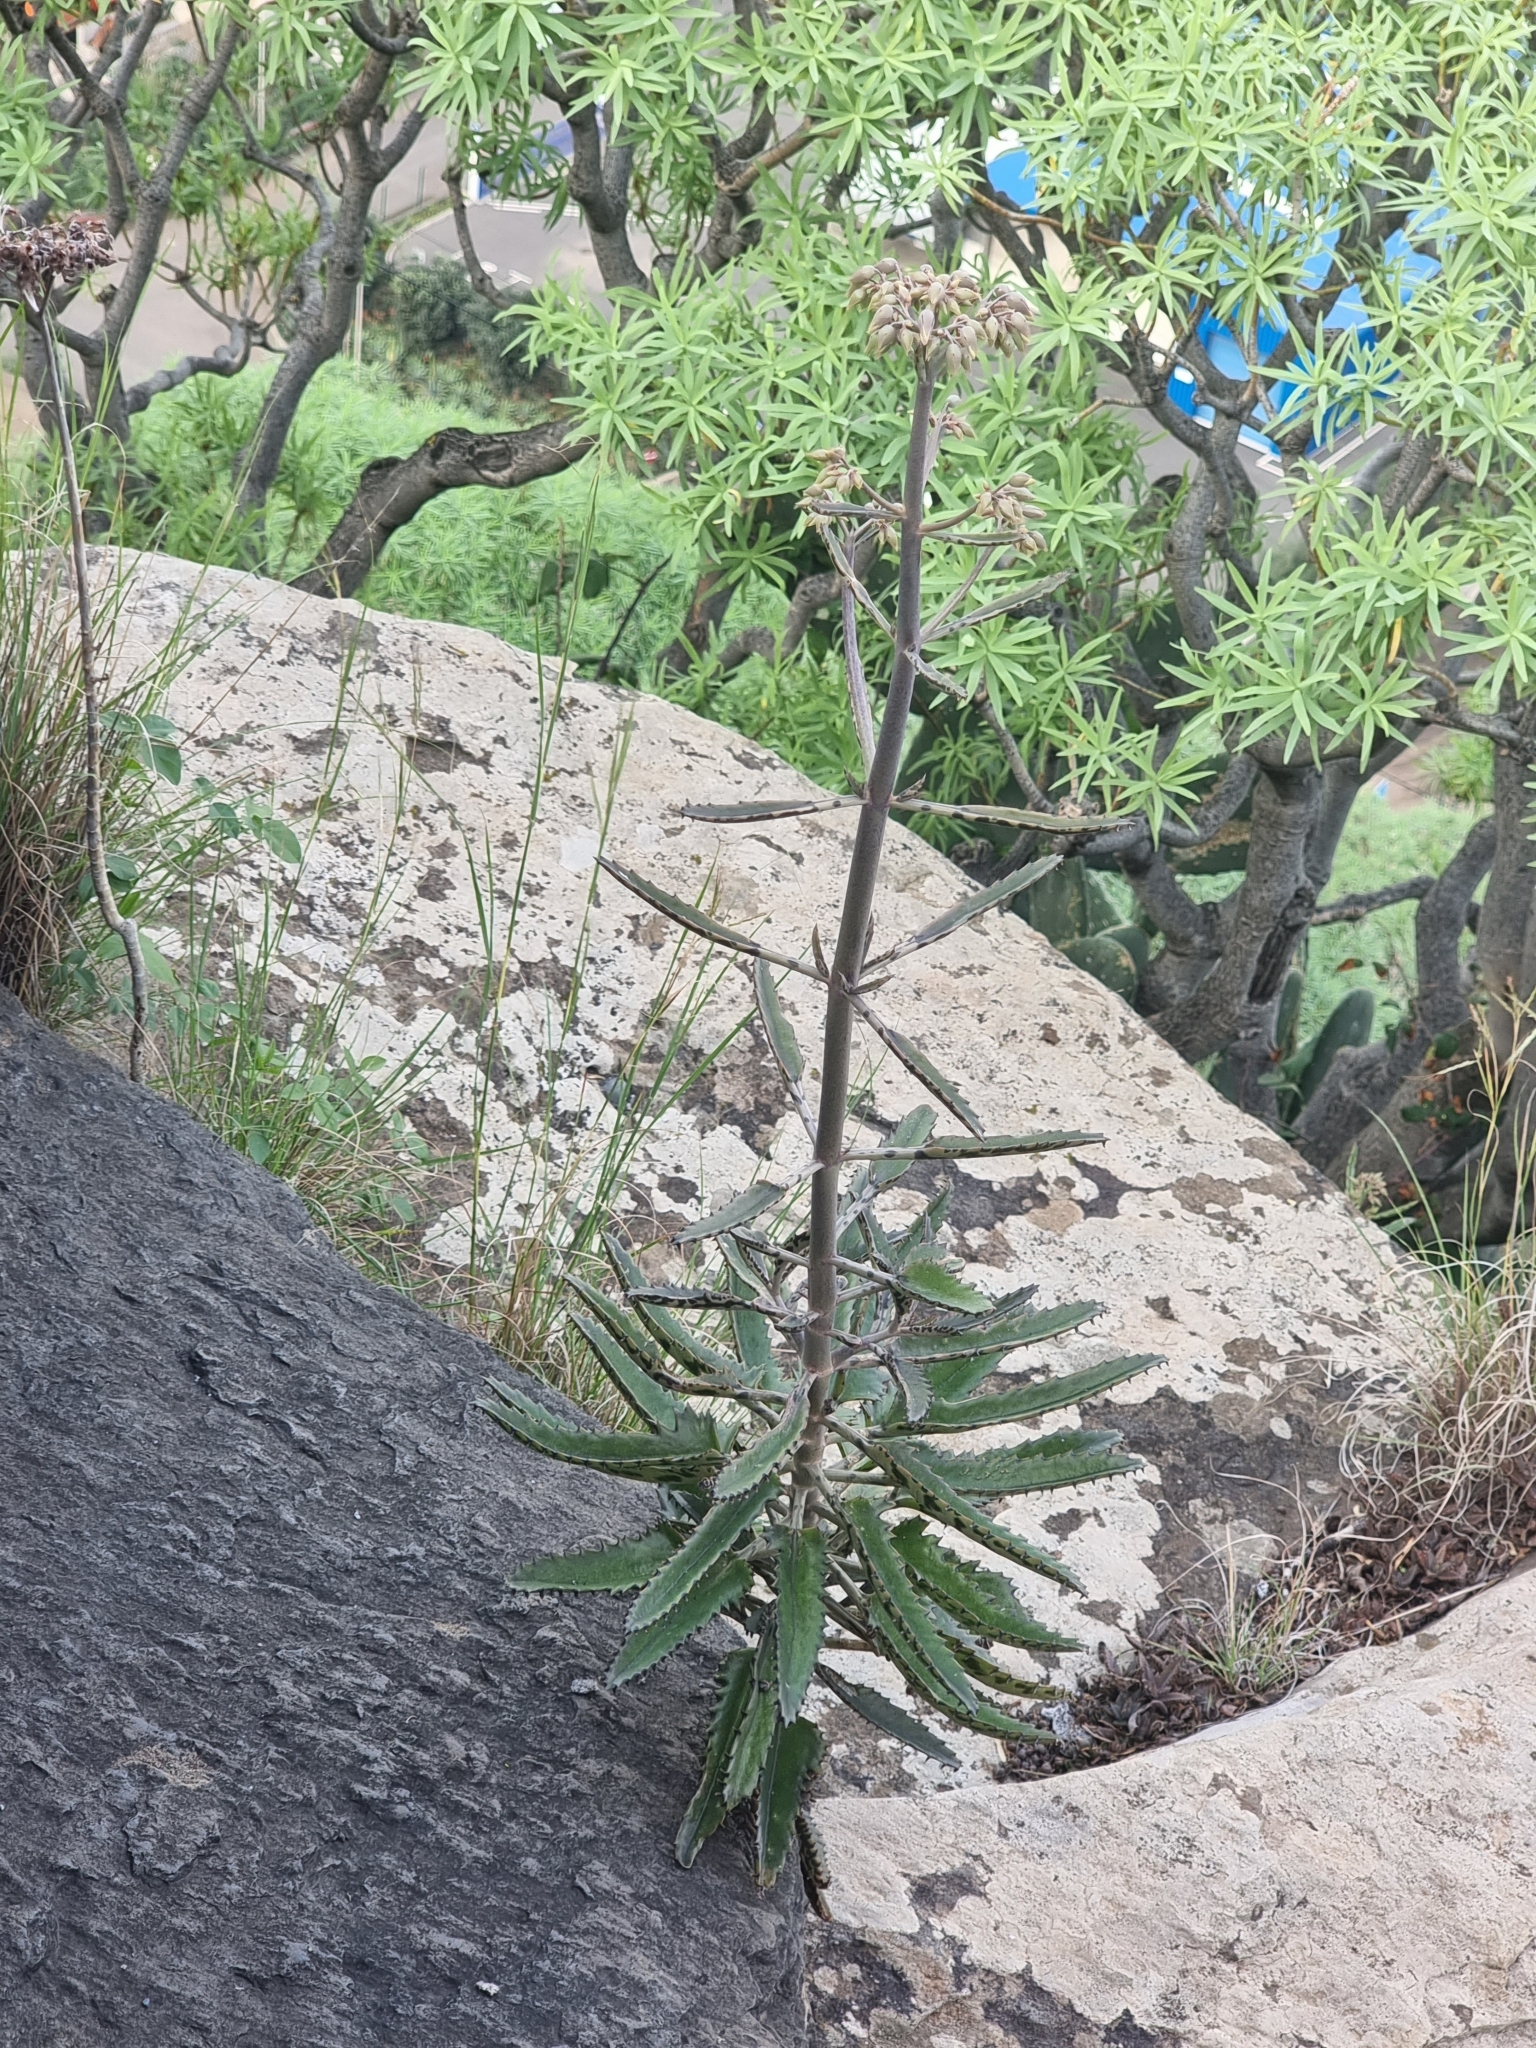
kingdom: Plantae
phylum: Tracheophyta
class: Magnoliopsida
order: Saxifragales
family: Crassulaceae
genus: Kalanchoe
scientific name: Kalanchoe houghtonii
